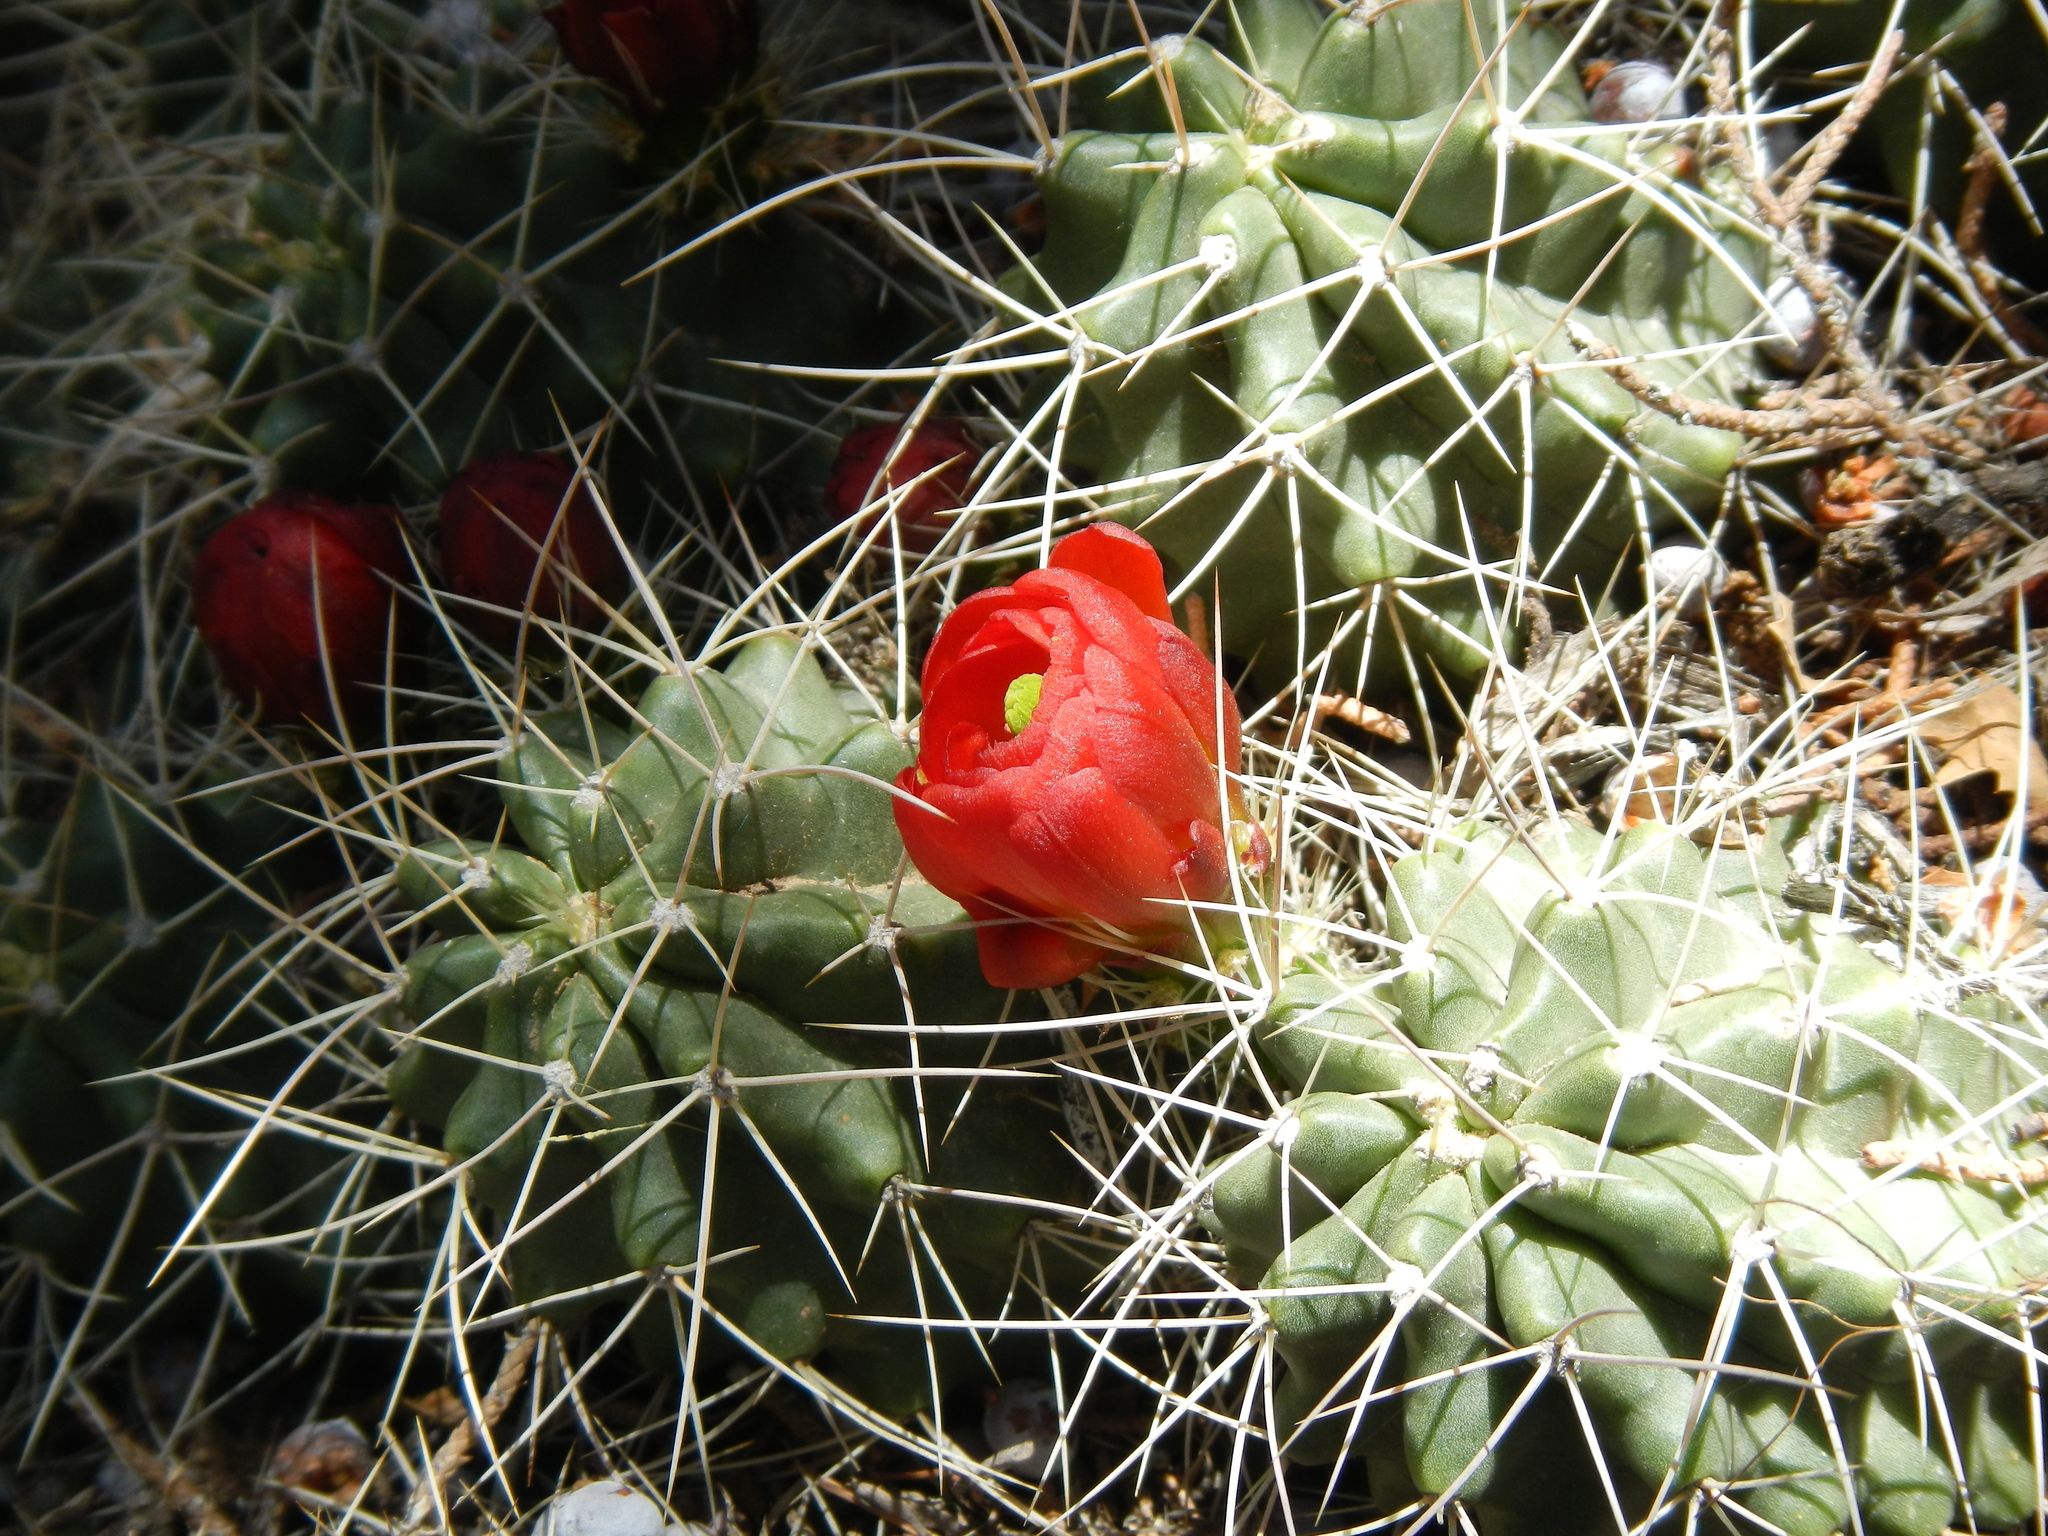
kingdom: Plantae
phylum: Tracheophyta
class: Magnoliopsida
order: Caryophyllales
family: Cactaceae
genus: Echinocereus
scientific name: Echinocereus triglochidiatus
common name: Claretcup hedgehog
